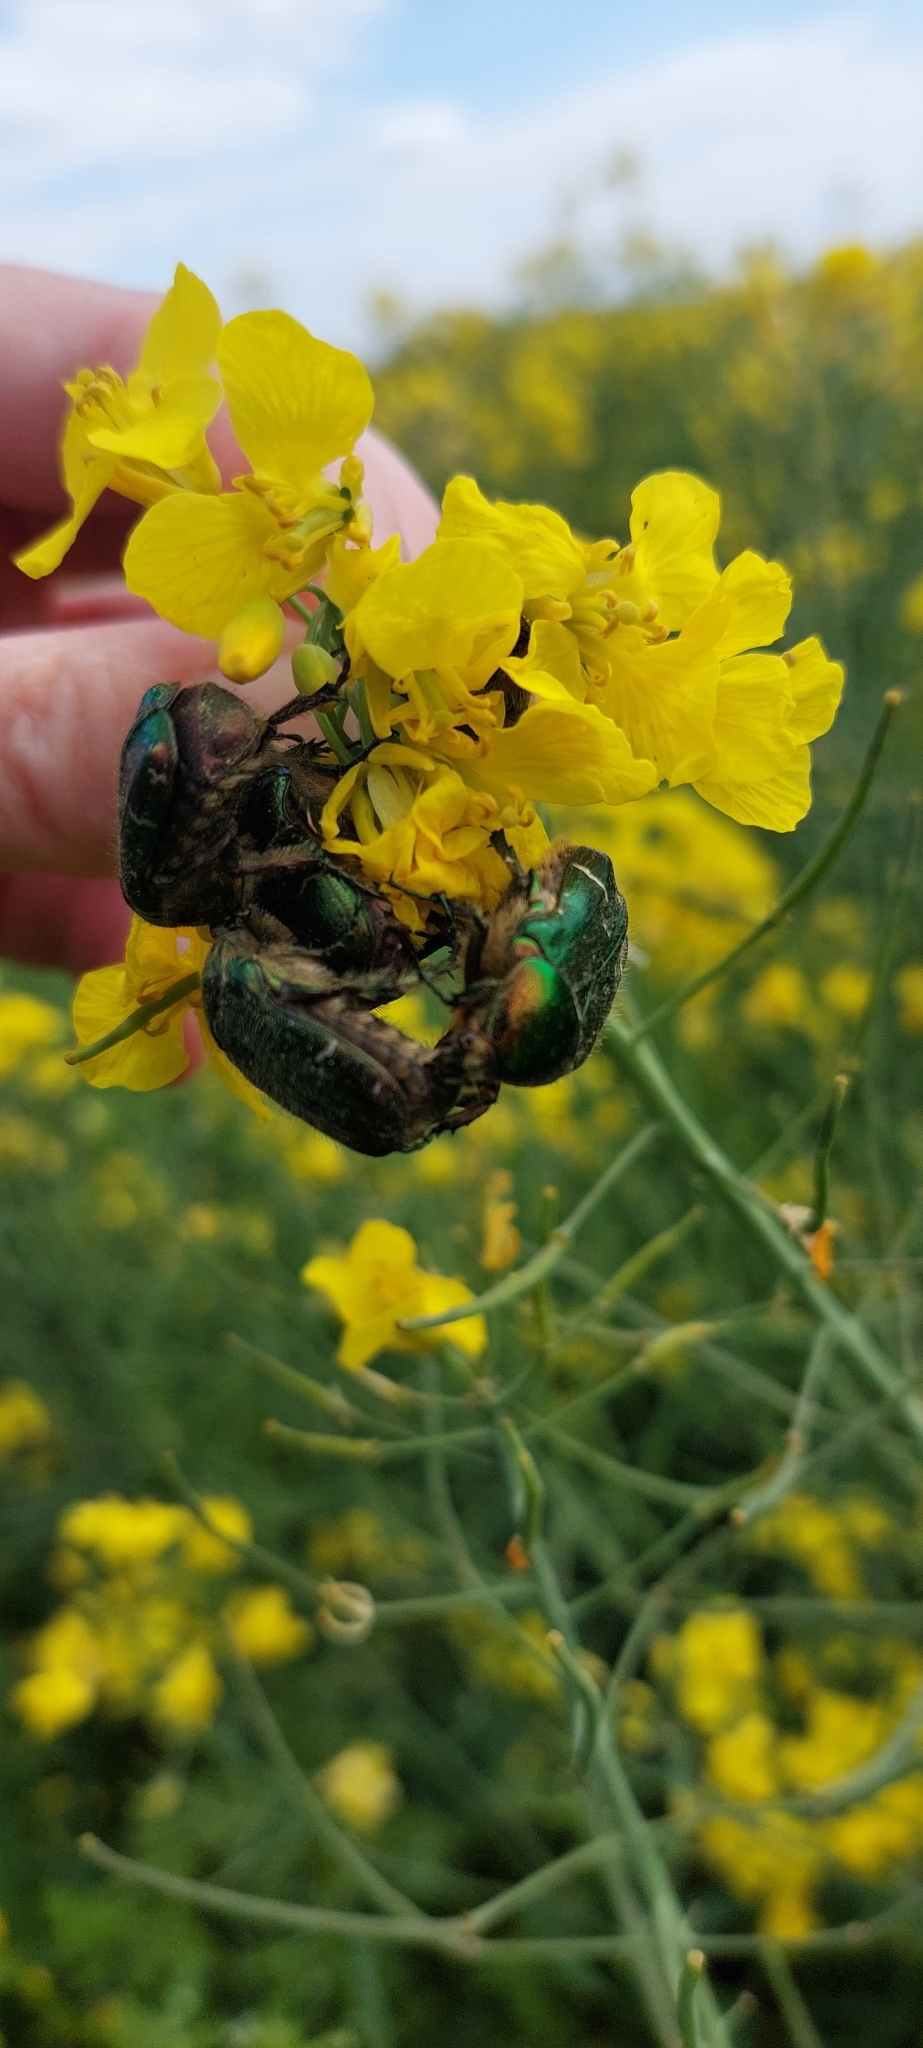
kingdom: Animalia
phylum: Arthropoda
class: Insecta
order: Coleoptera
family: Scarabaeidae
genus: Cetonia
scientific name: Cetonia aurata
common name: Rose chafer
